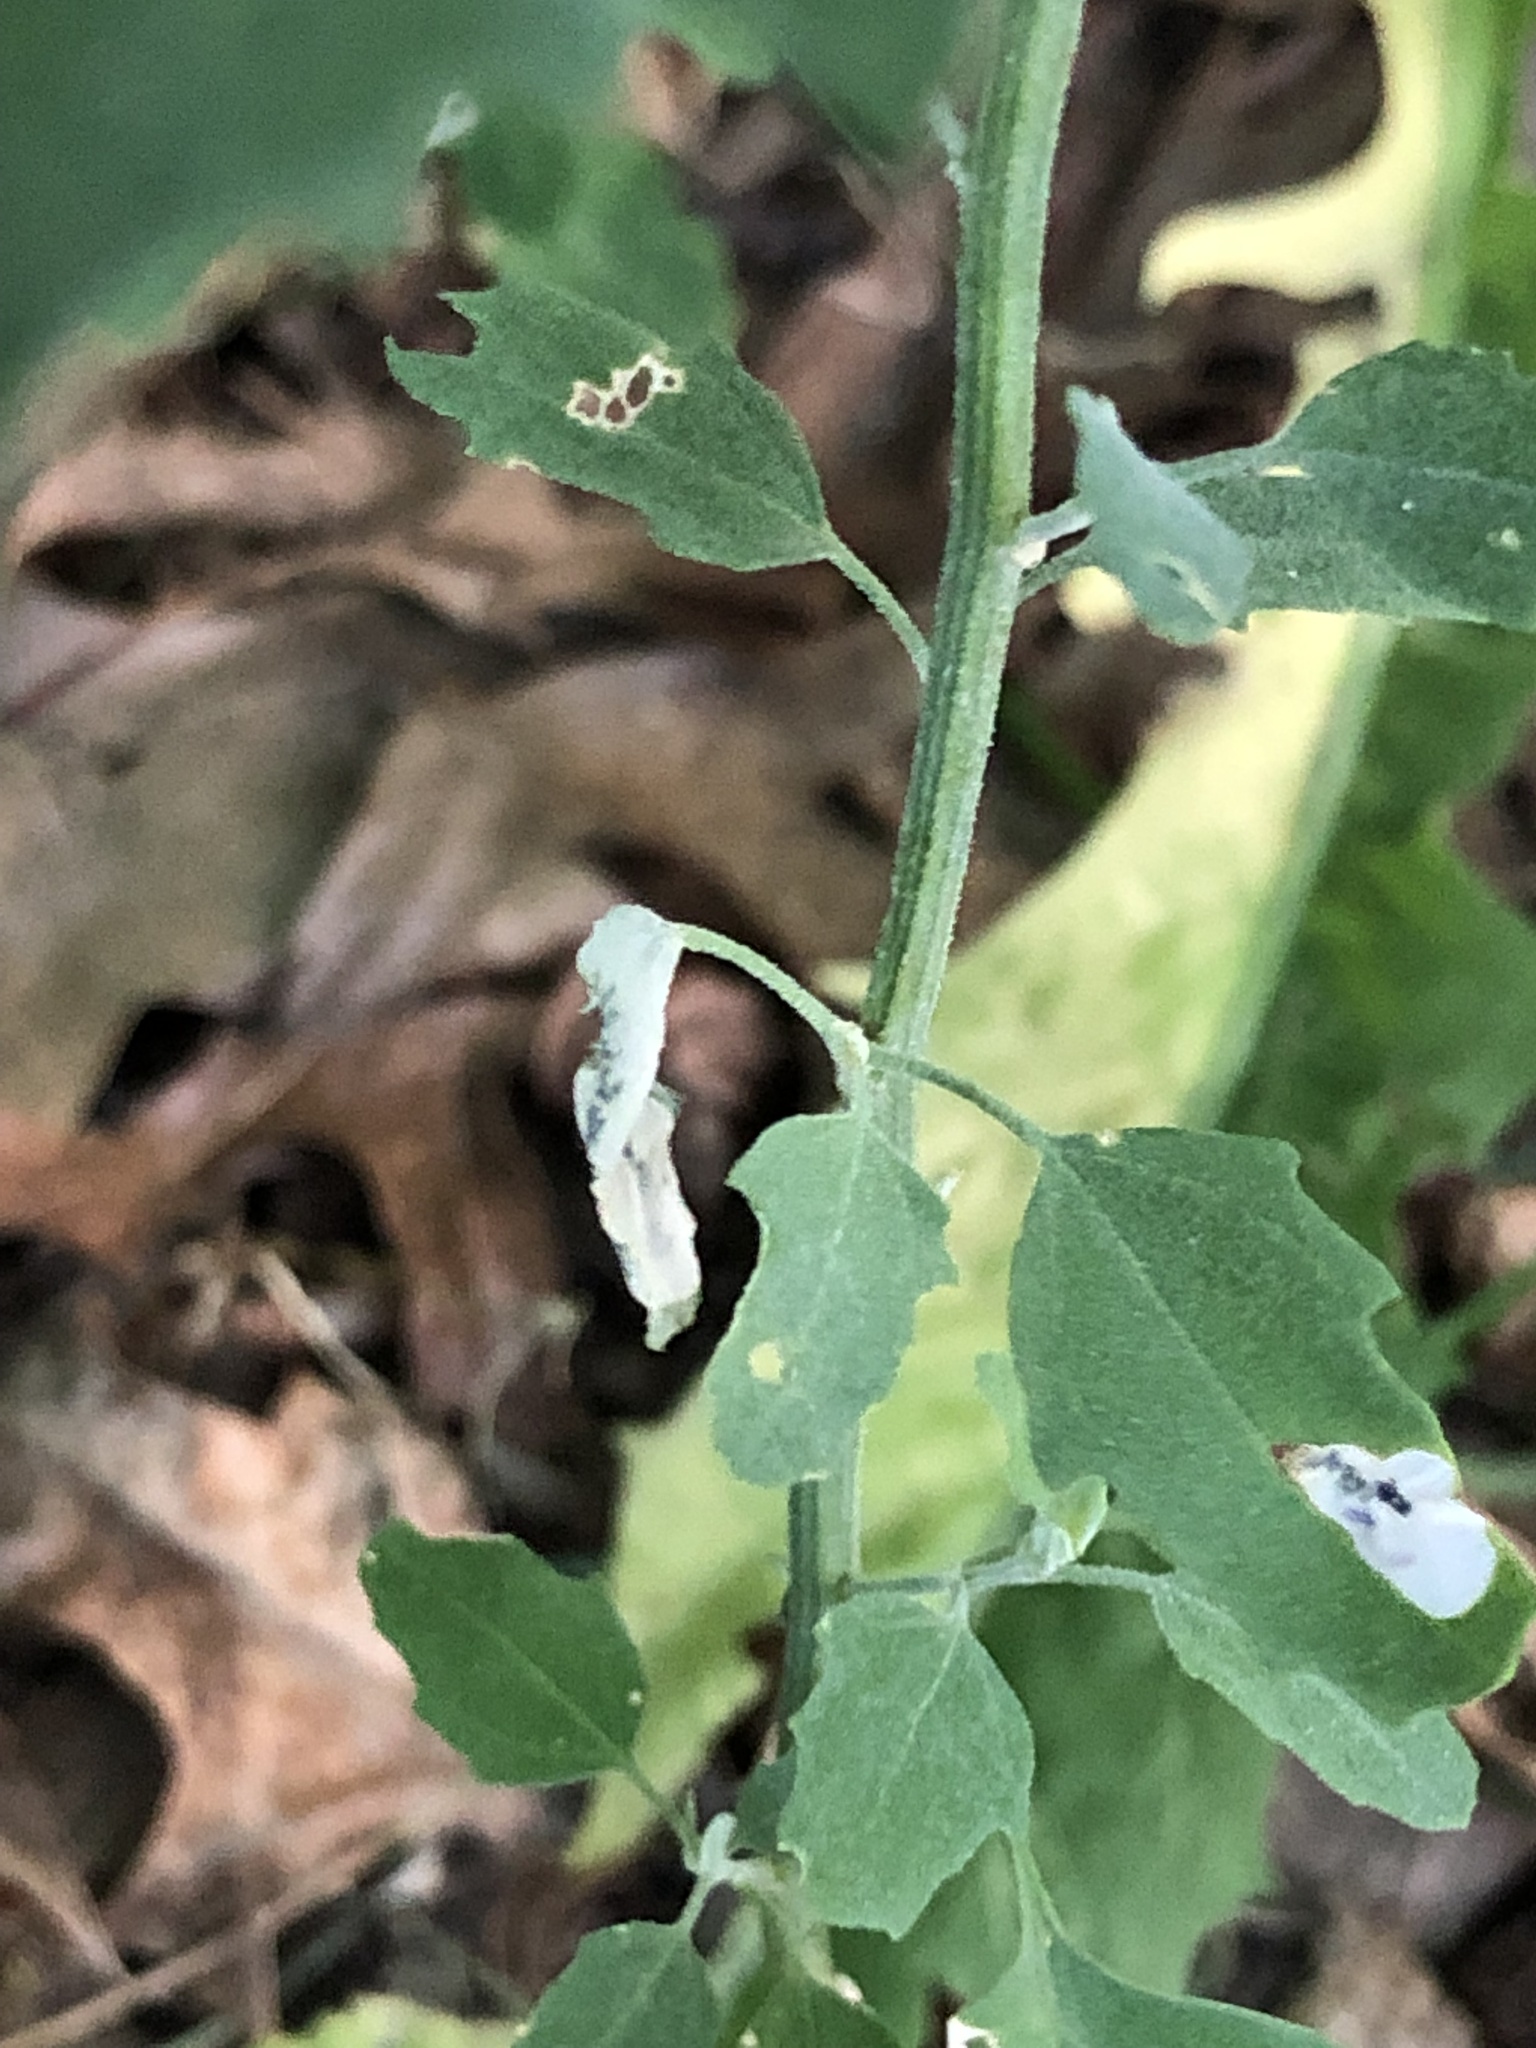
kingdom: Plantae
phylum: Tracheophyta
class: Magnoliopsida
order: Caryophyllales
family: Amaranthaceae
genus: Chenopodium
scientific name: Chenopodium album
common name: Fat-hen
